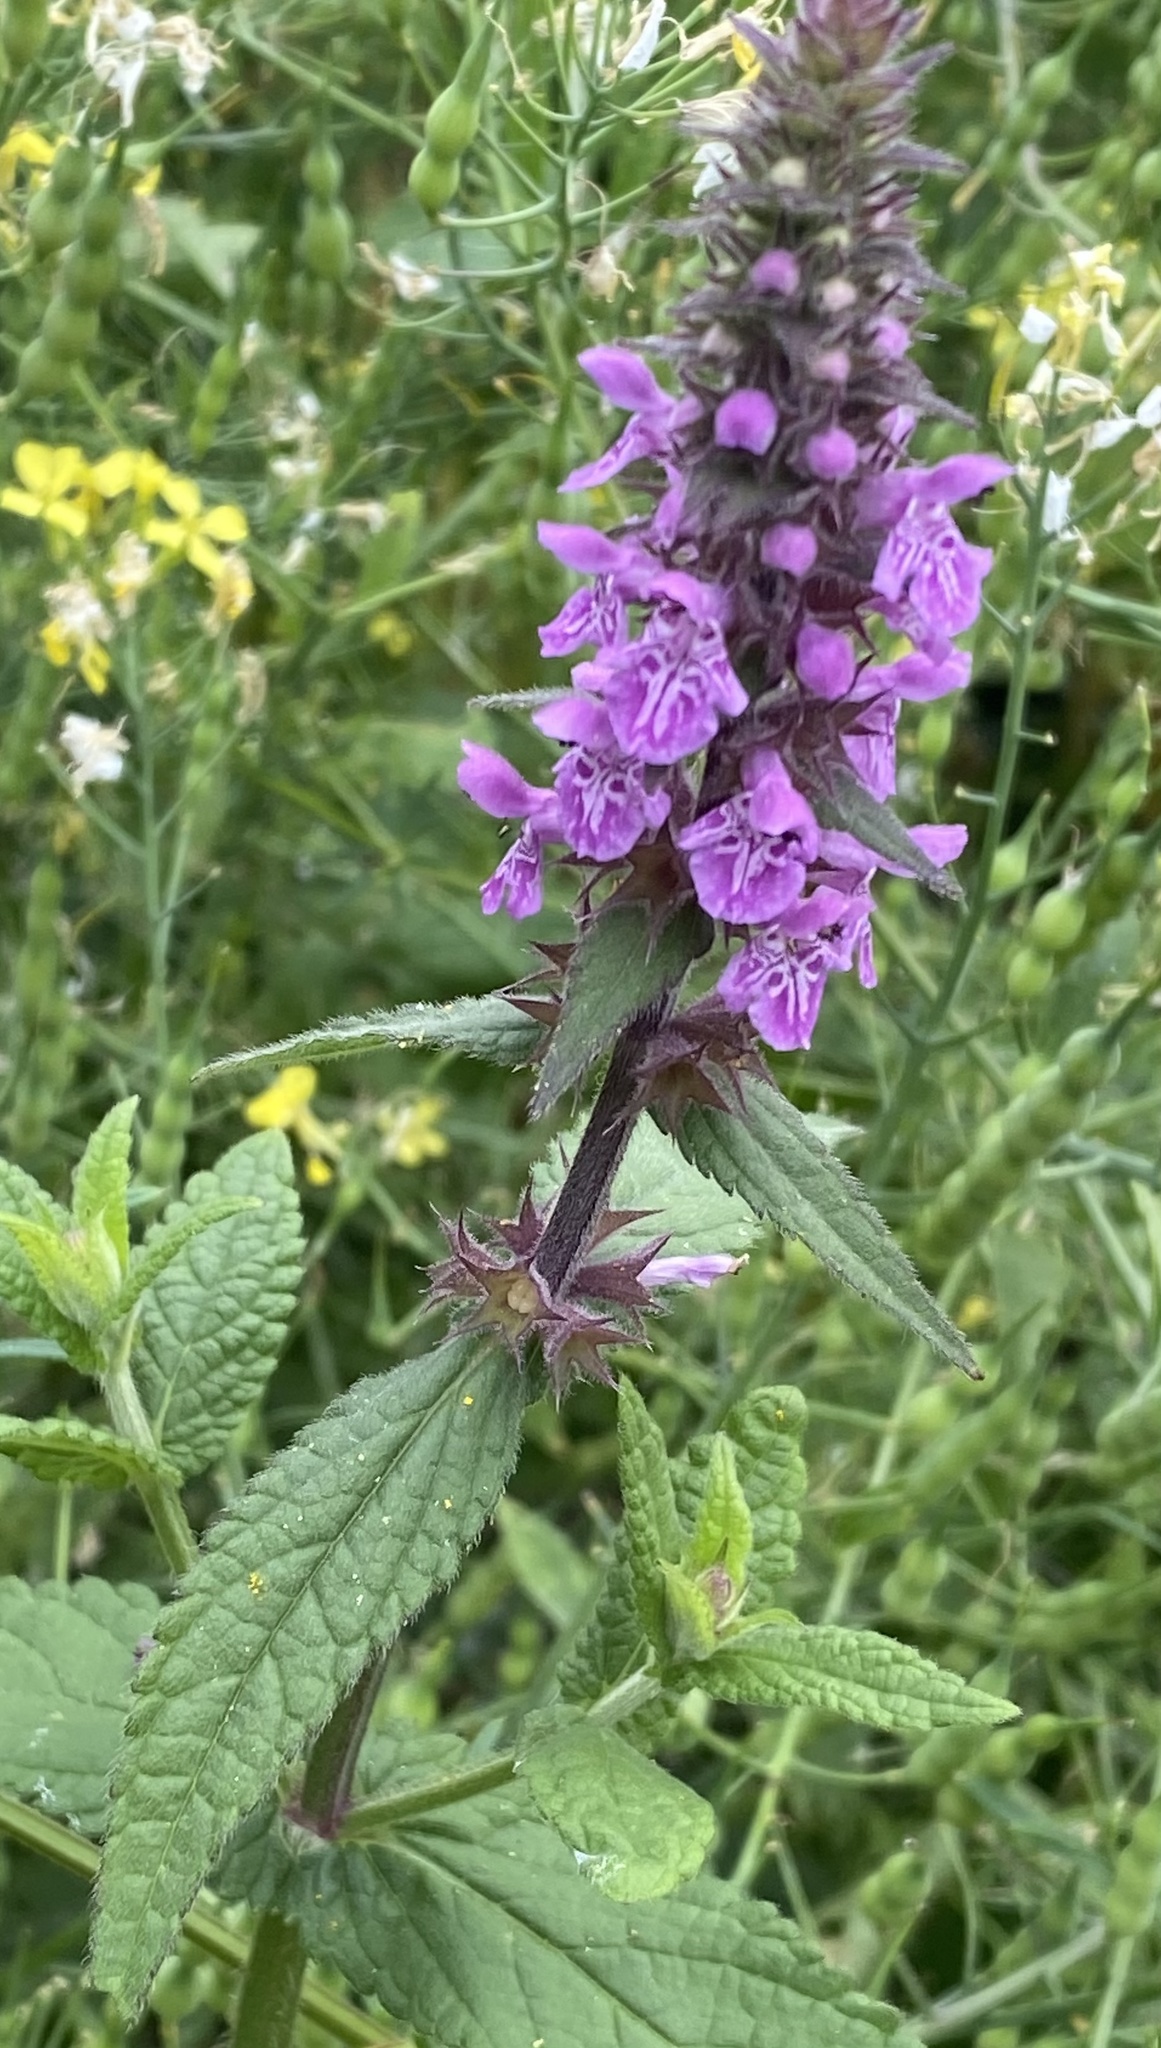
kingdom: Plantae
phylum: Tracheophyta
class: Magnoliopsida
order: Lamiales
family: Lamiaceae
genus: Stachys
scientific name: Stachys palustris
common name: Marsh woundwort
